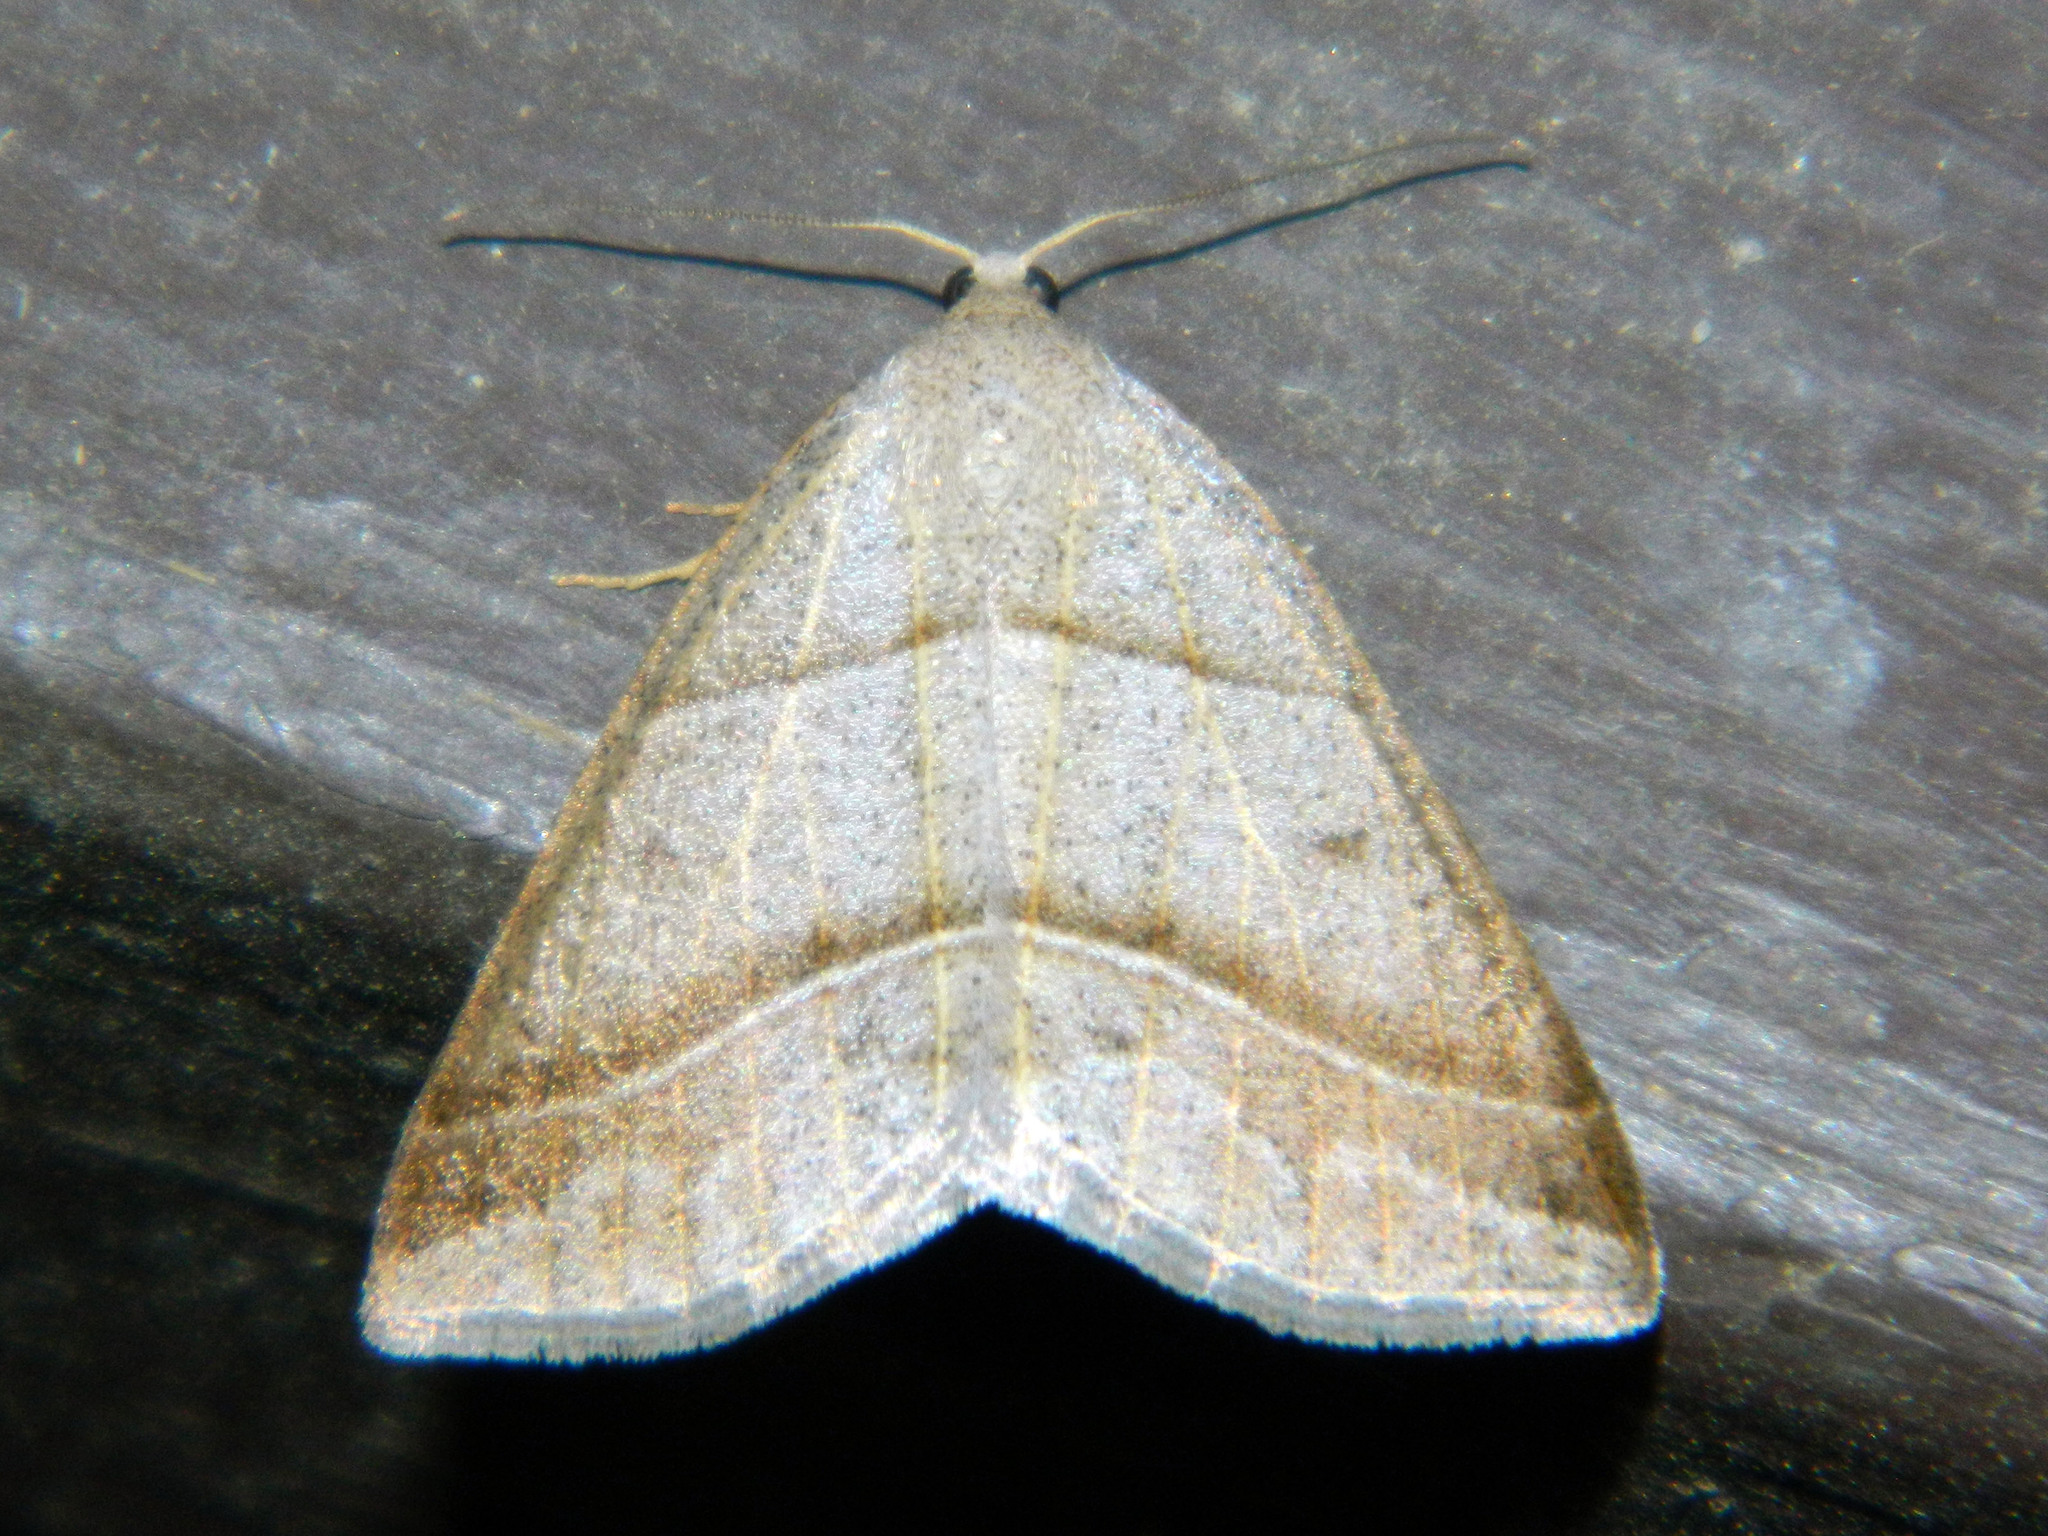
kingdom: Animalia
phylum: Arthropoda
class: Insecta
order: Lepidoptera
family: Pterophoridae
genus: Pterophorus
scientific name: Pterophorus Petrophora subaequaria
